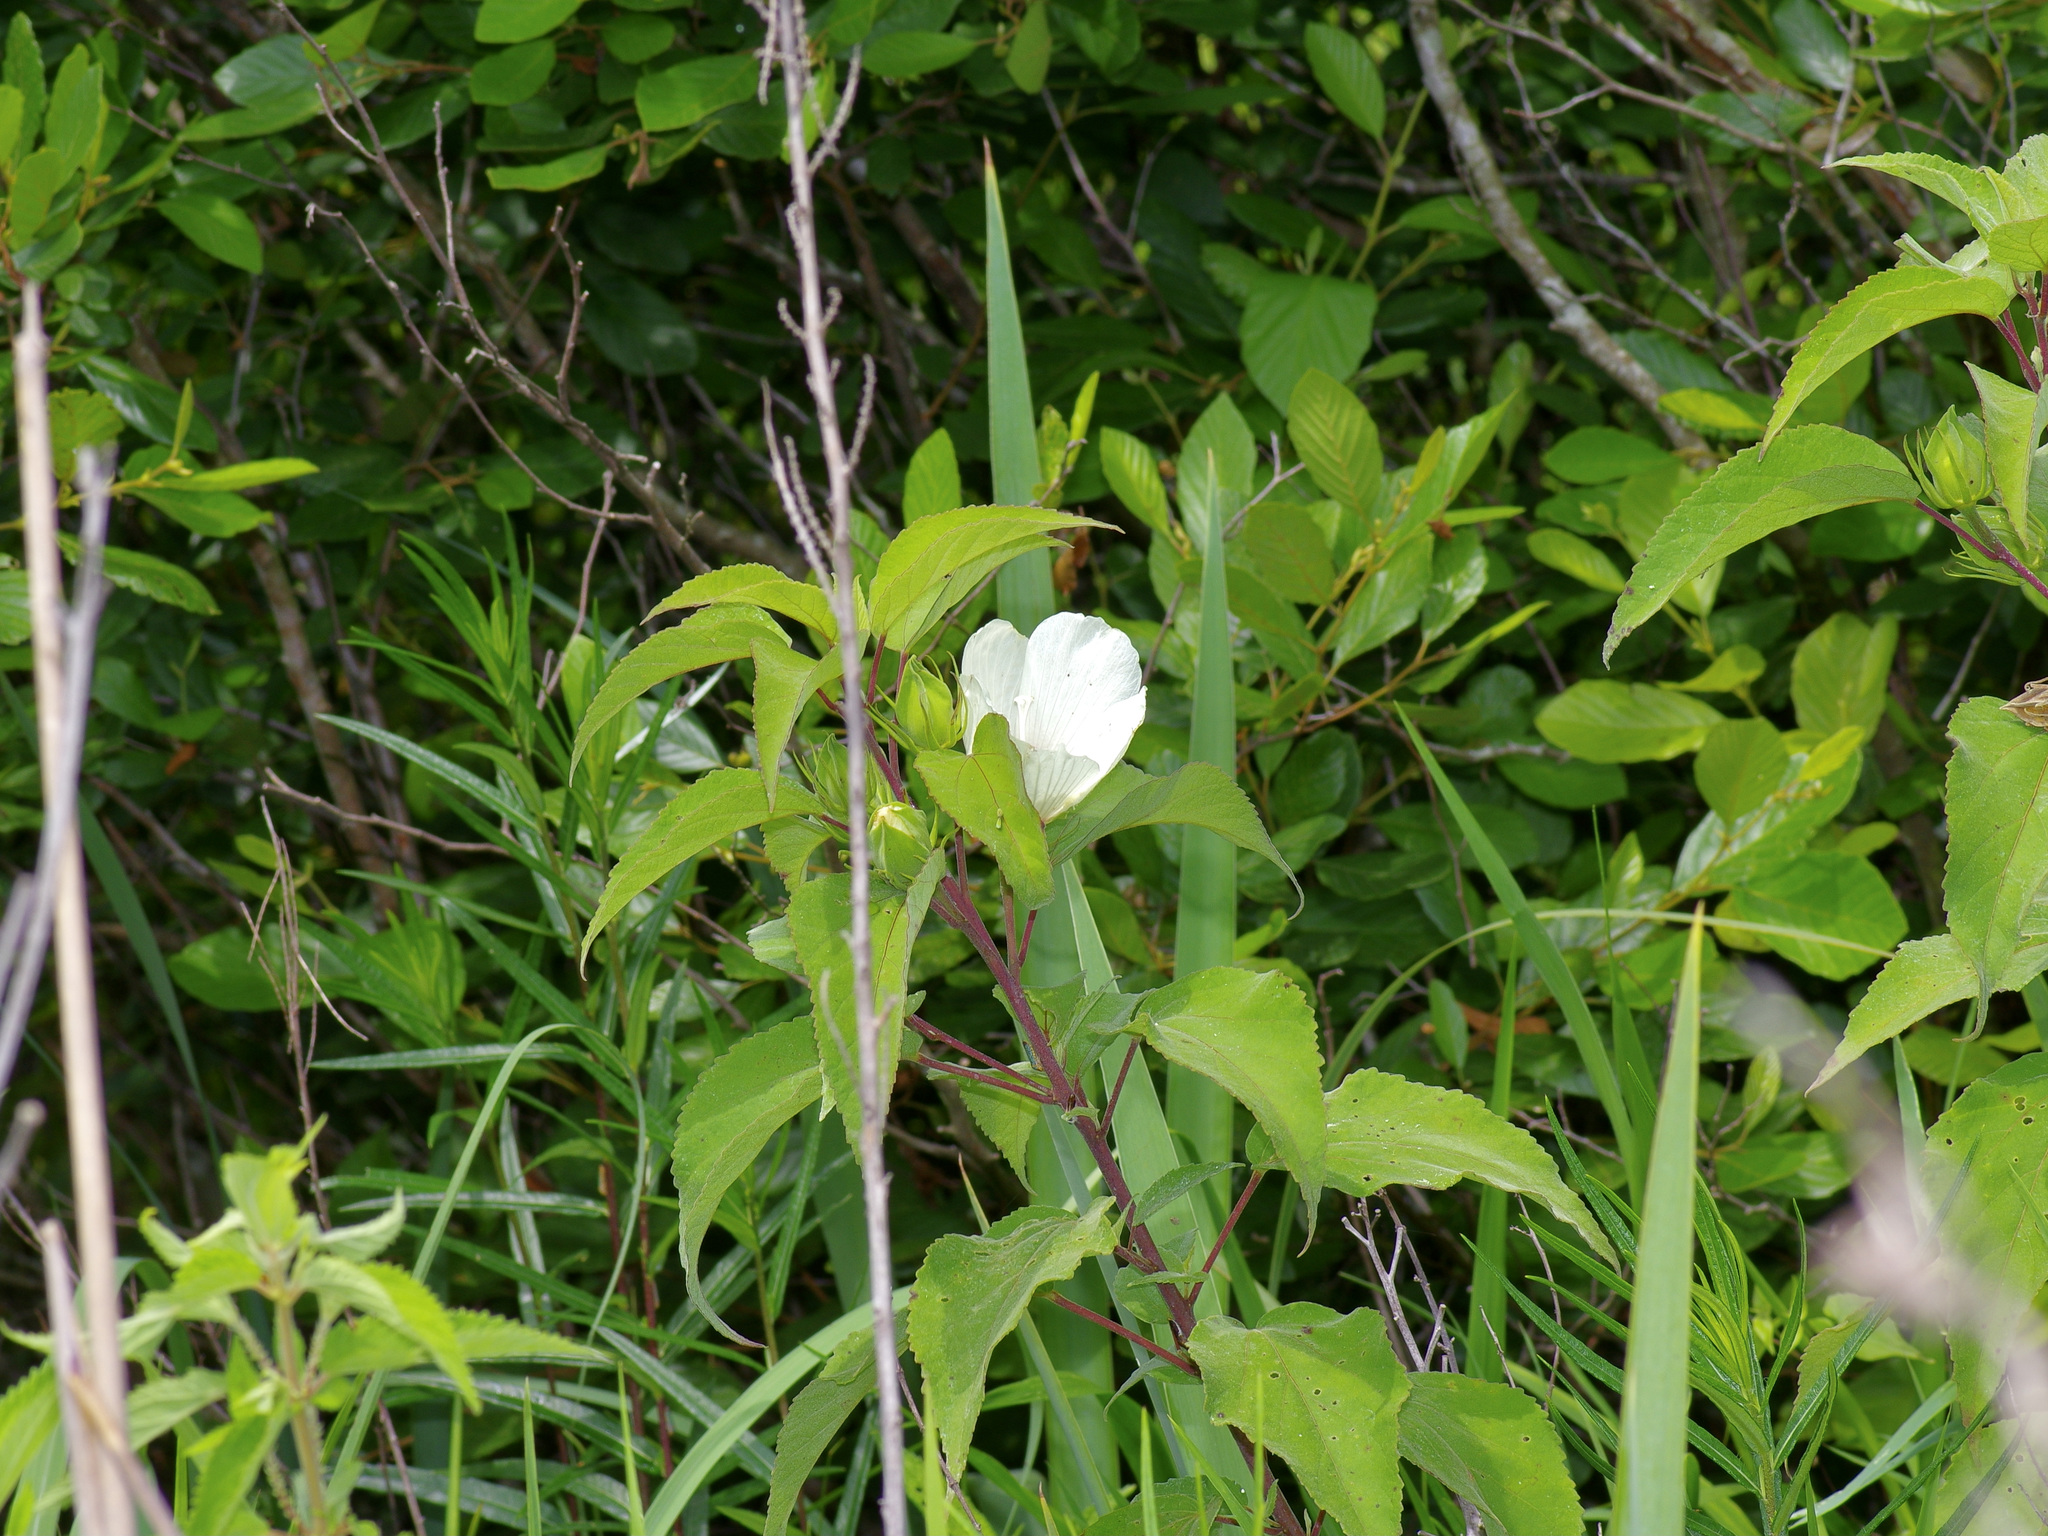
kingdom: Plantae
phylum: Tracheophyta
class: Magnoliopsida
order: Malvales
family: Malvaceae
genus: Hibiscus
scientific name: Hibiscus moscheutos
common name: Common rose-mallow
